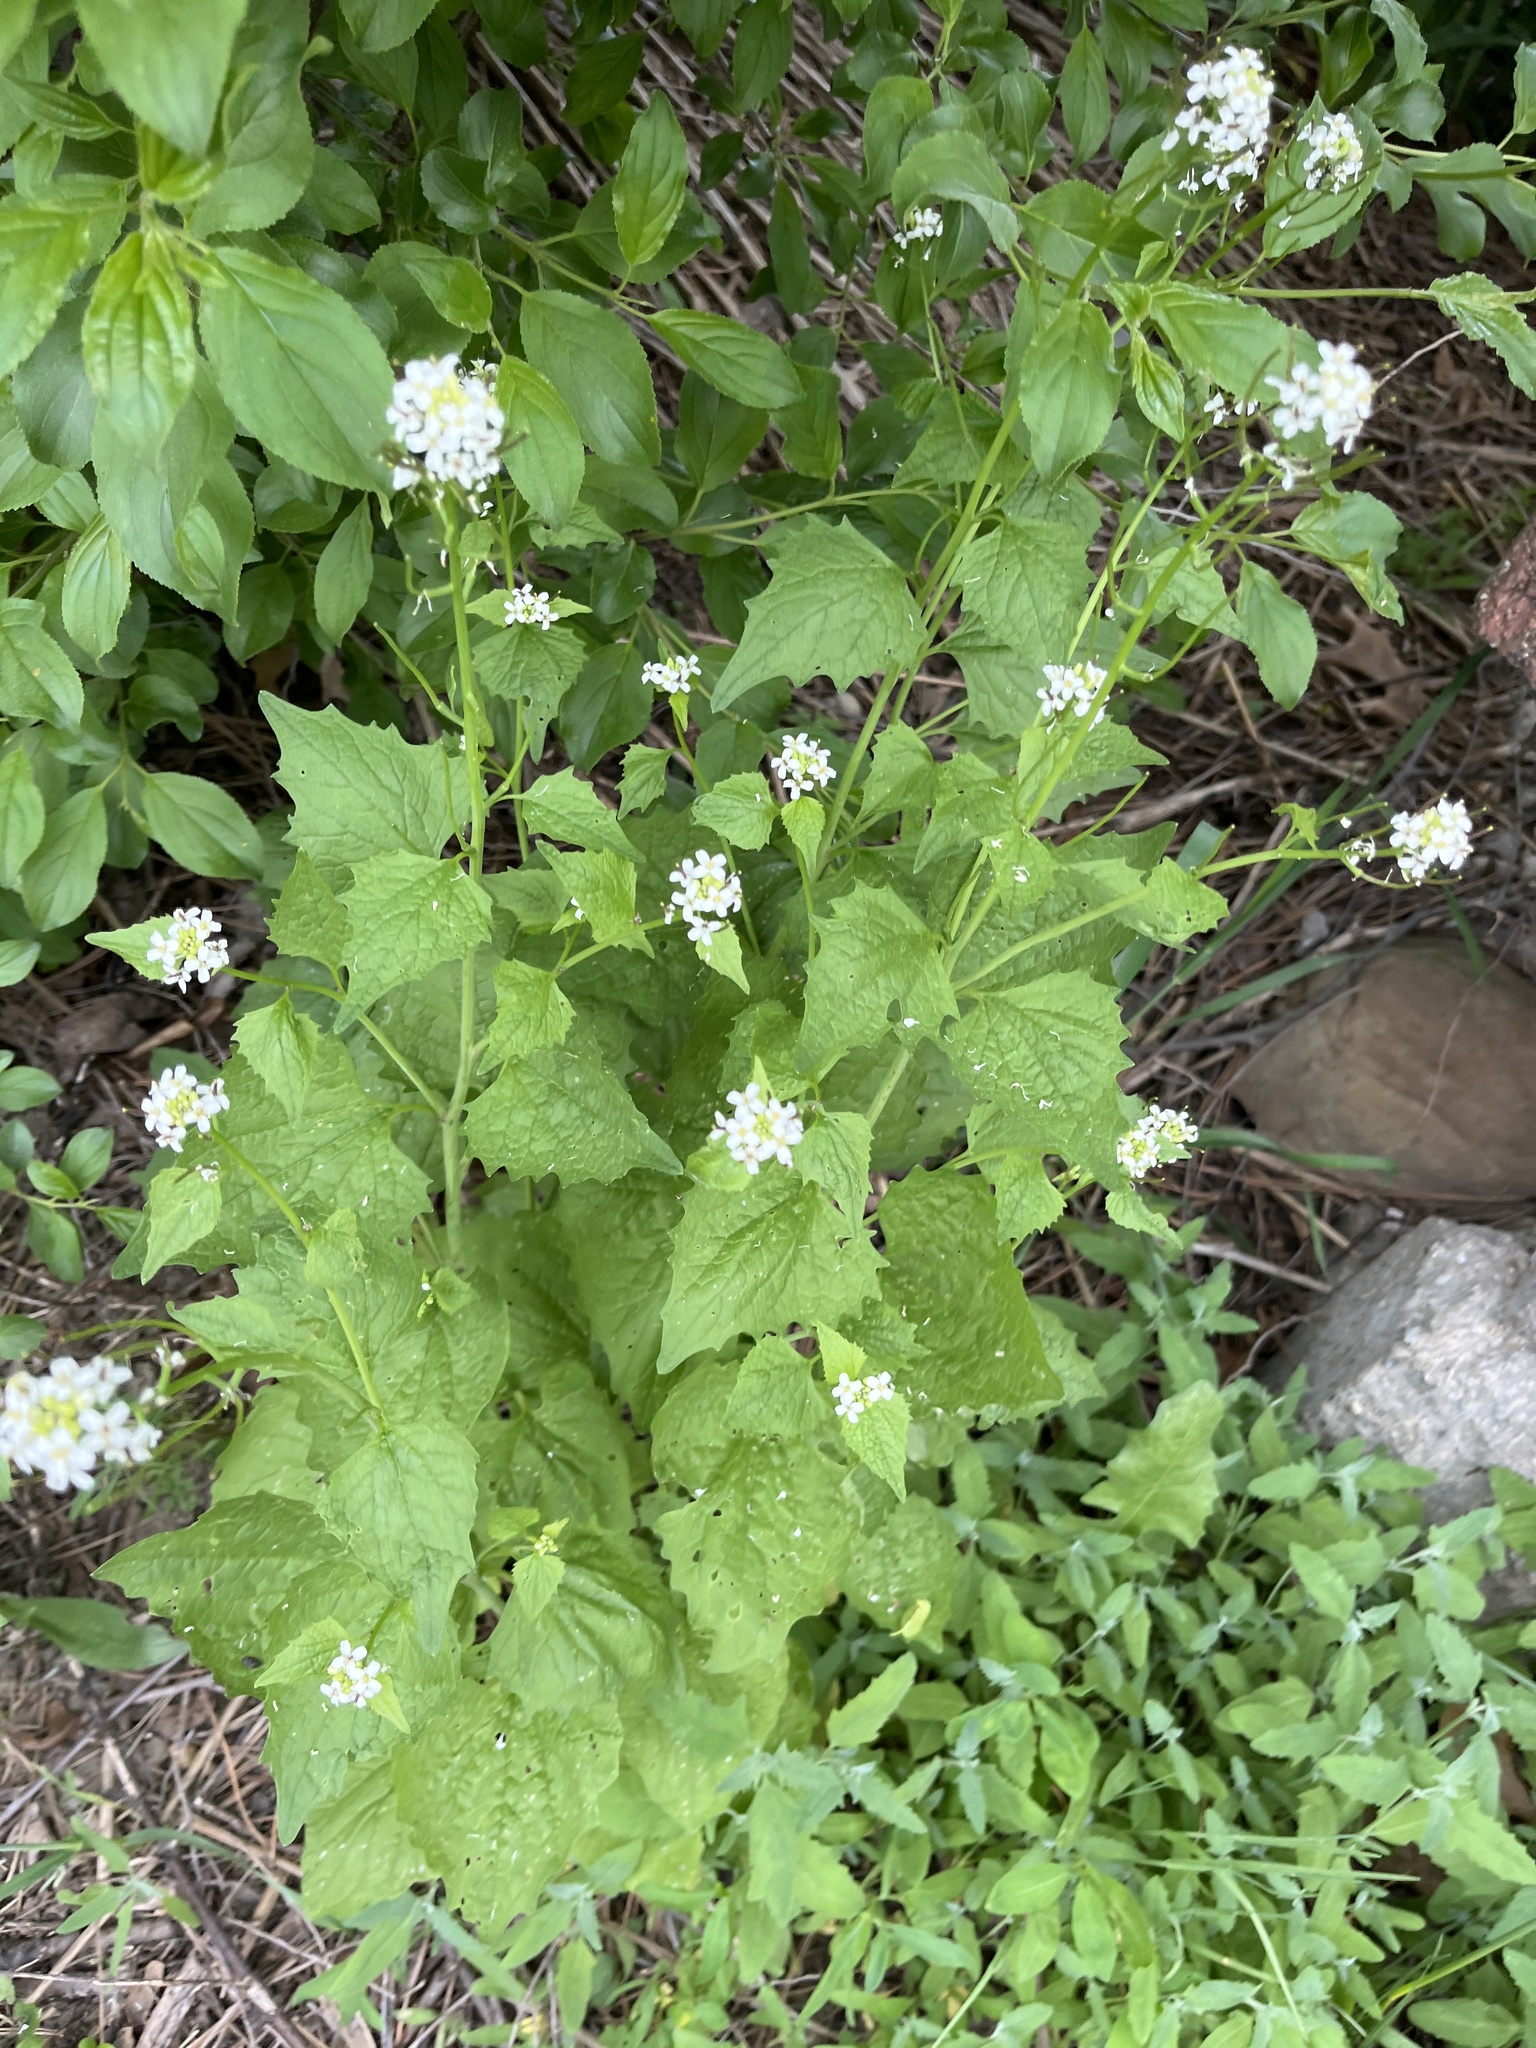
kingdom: Plantae
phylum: Tracheophyta
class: Magnoliopsida
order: Brassicales
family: Brassicaceae
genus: Alliaria
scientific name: Alliaria petiolata
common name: Garlic mustard
